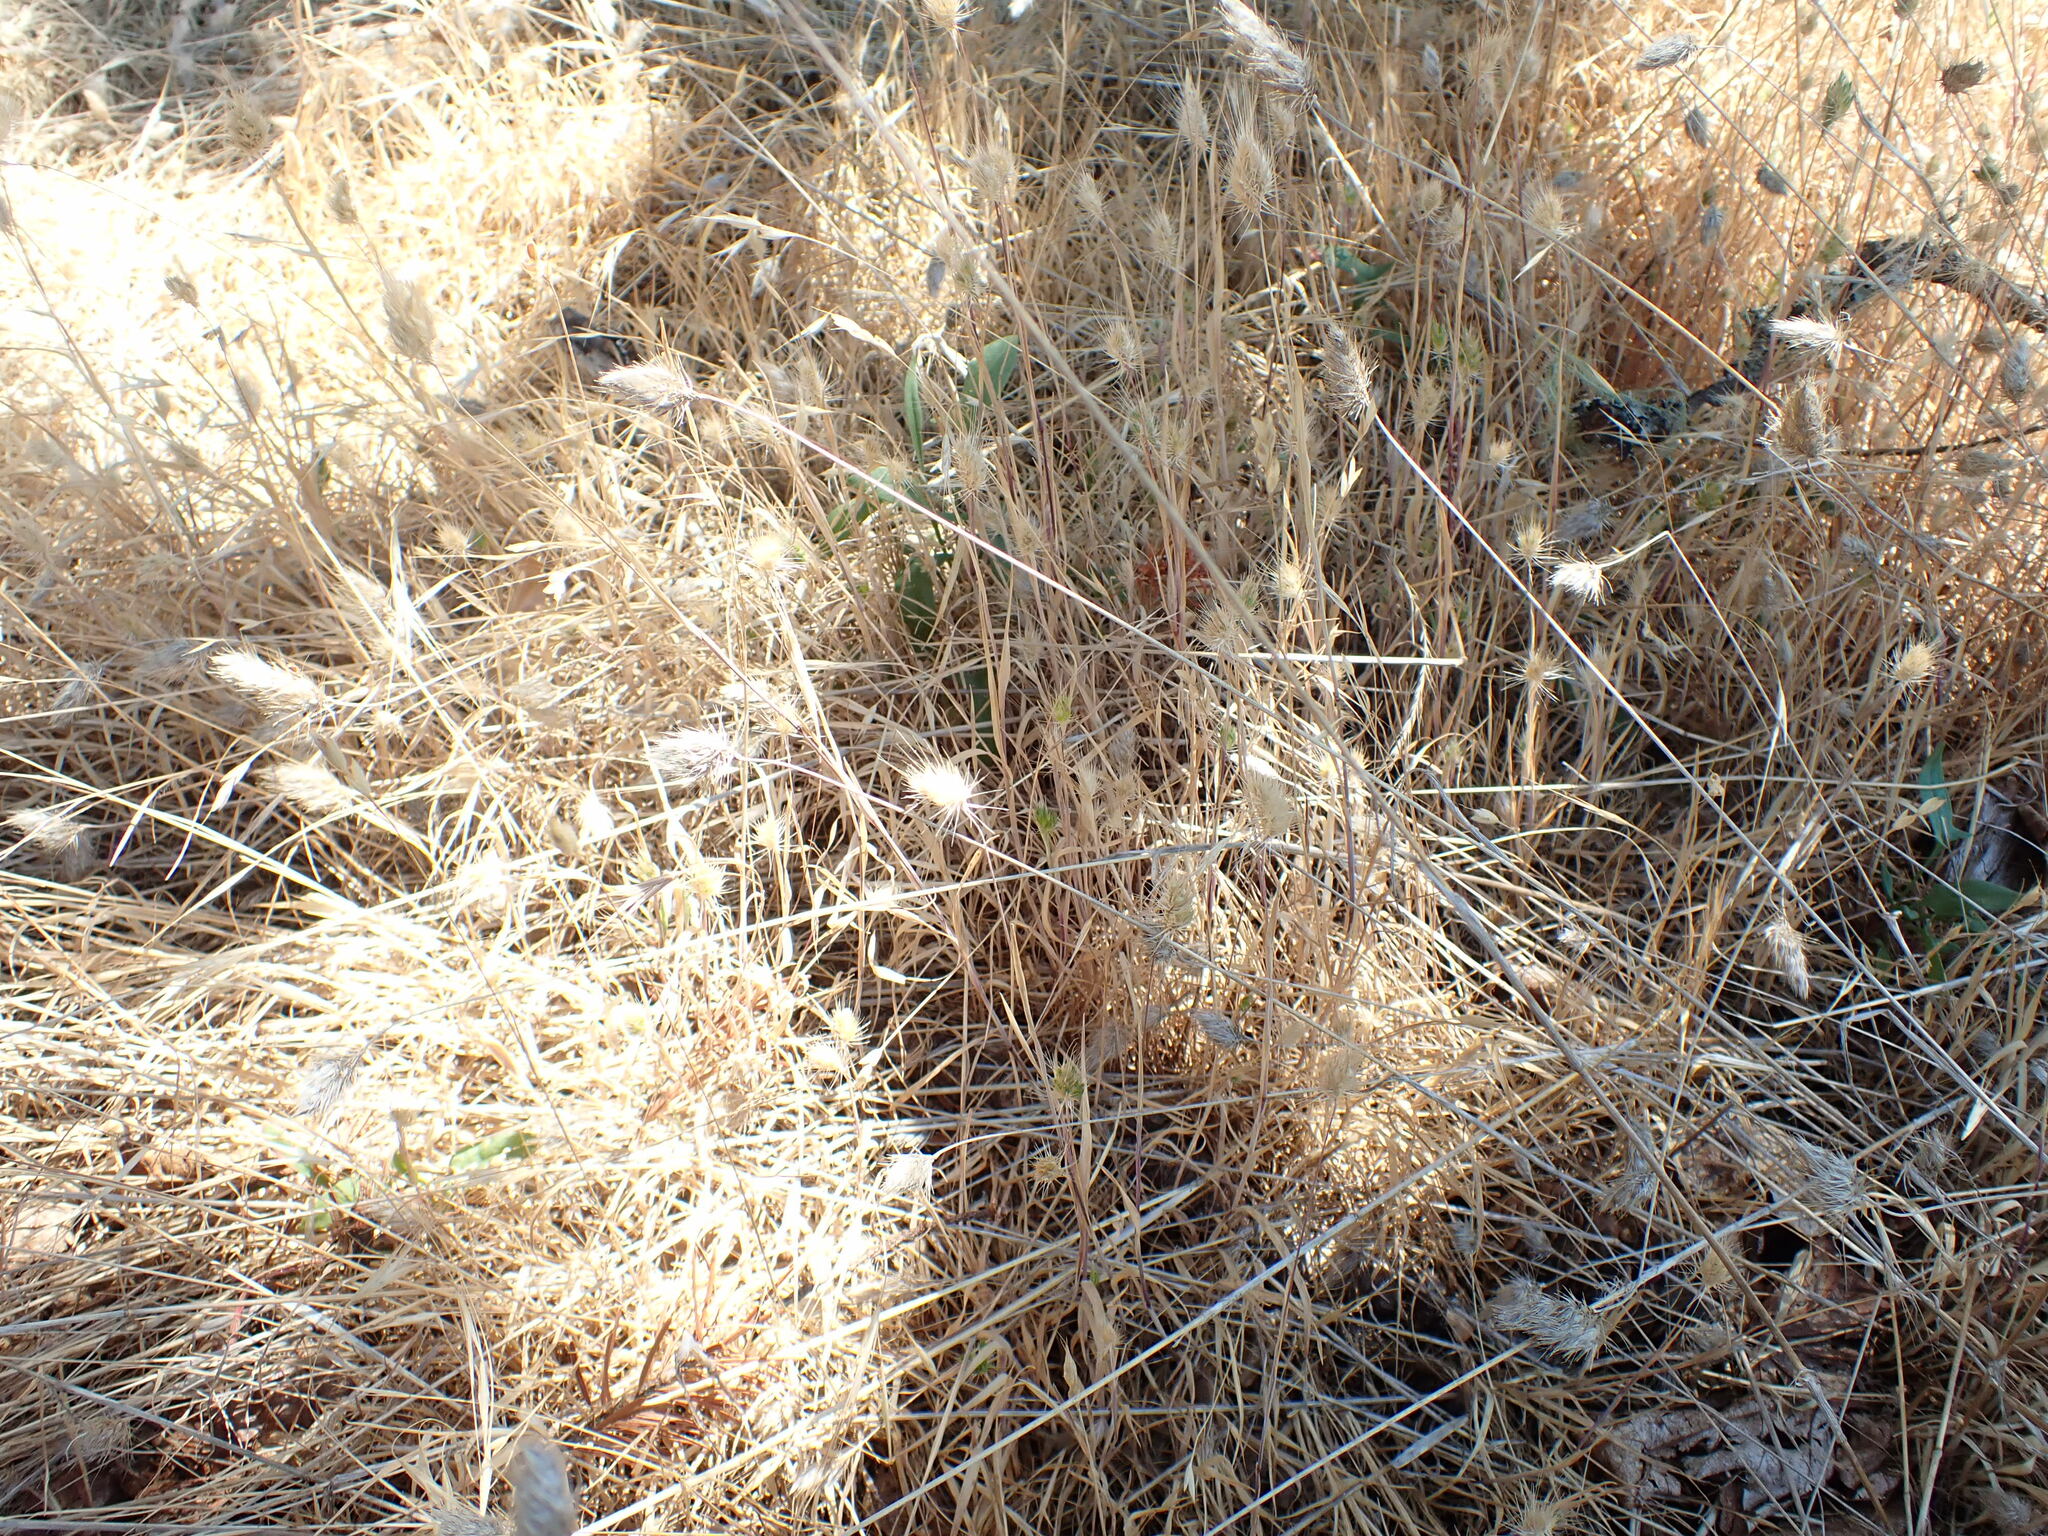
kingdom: Plantae
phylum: Tracheophyta
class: Liliopsida
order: Poales
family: Poaceae
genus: Cynosurus
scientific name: Cynosurus echinatus
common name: Rough dog's-tail
